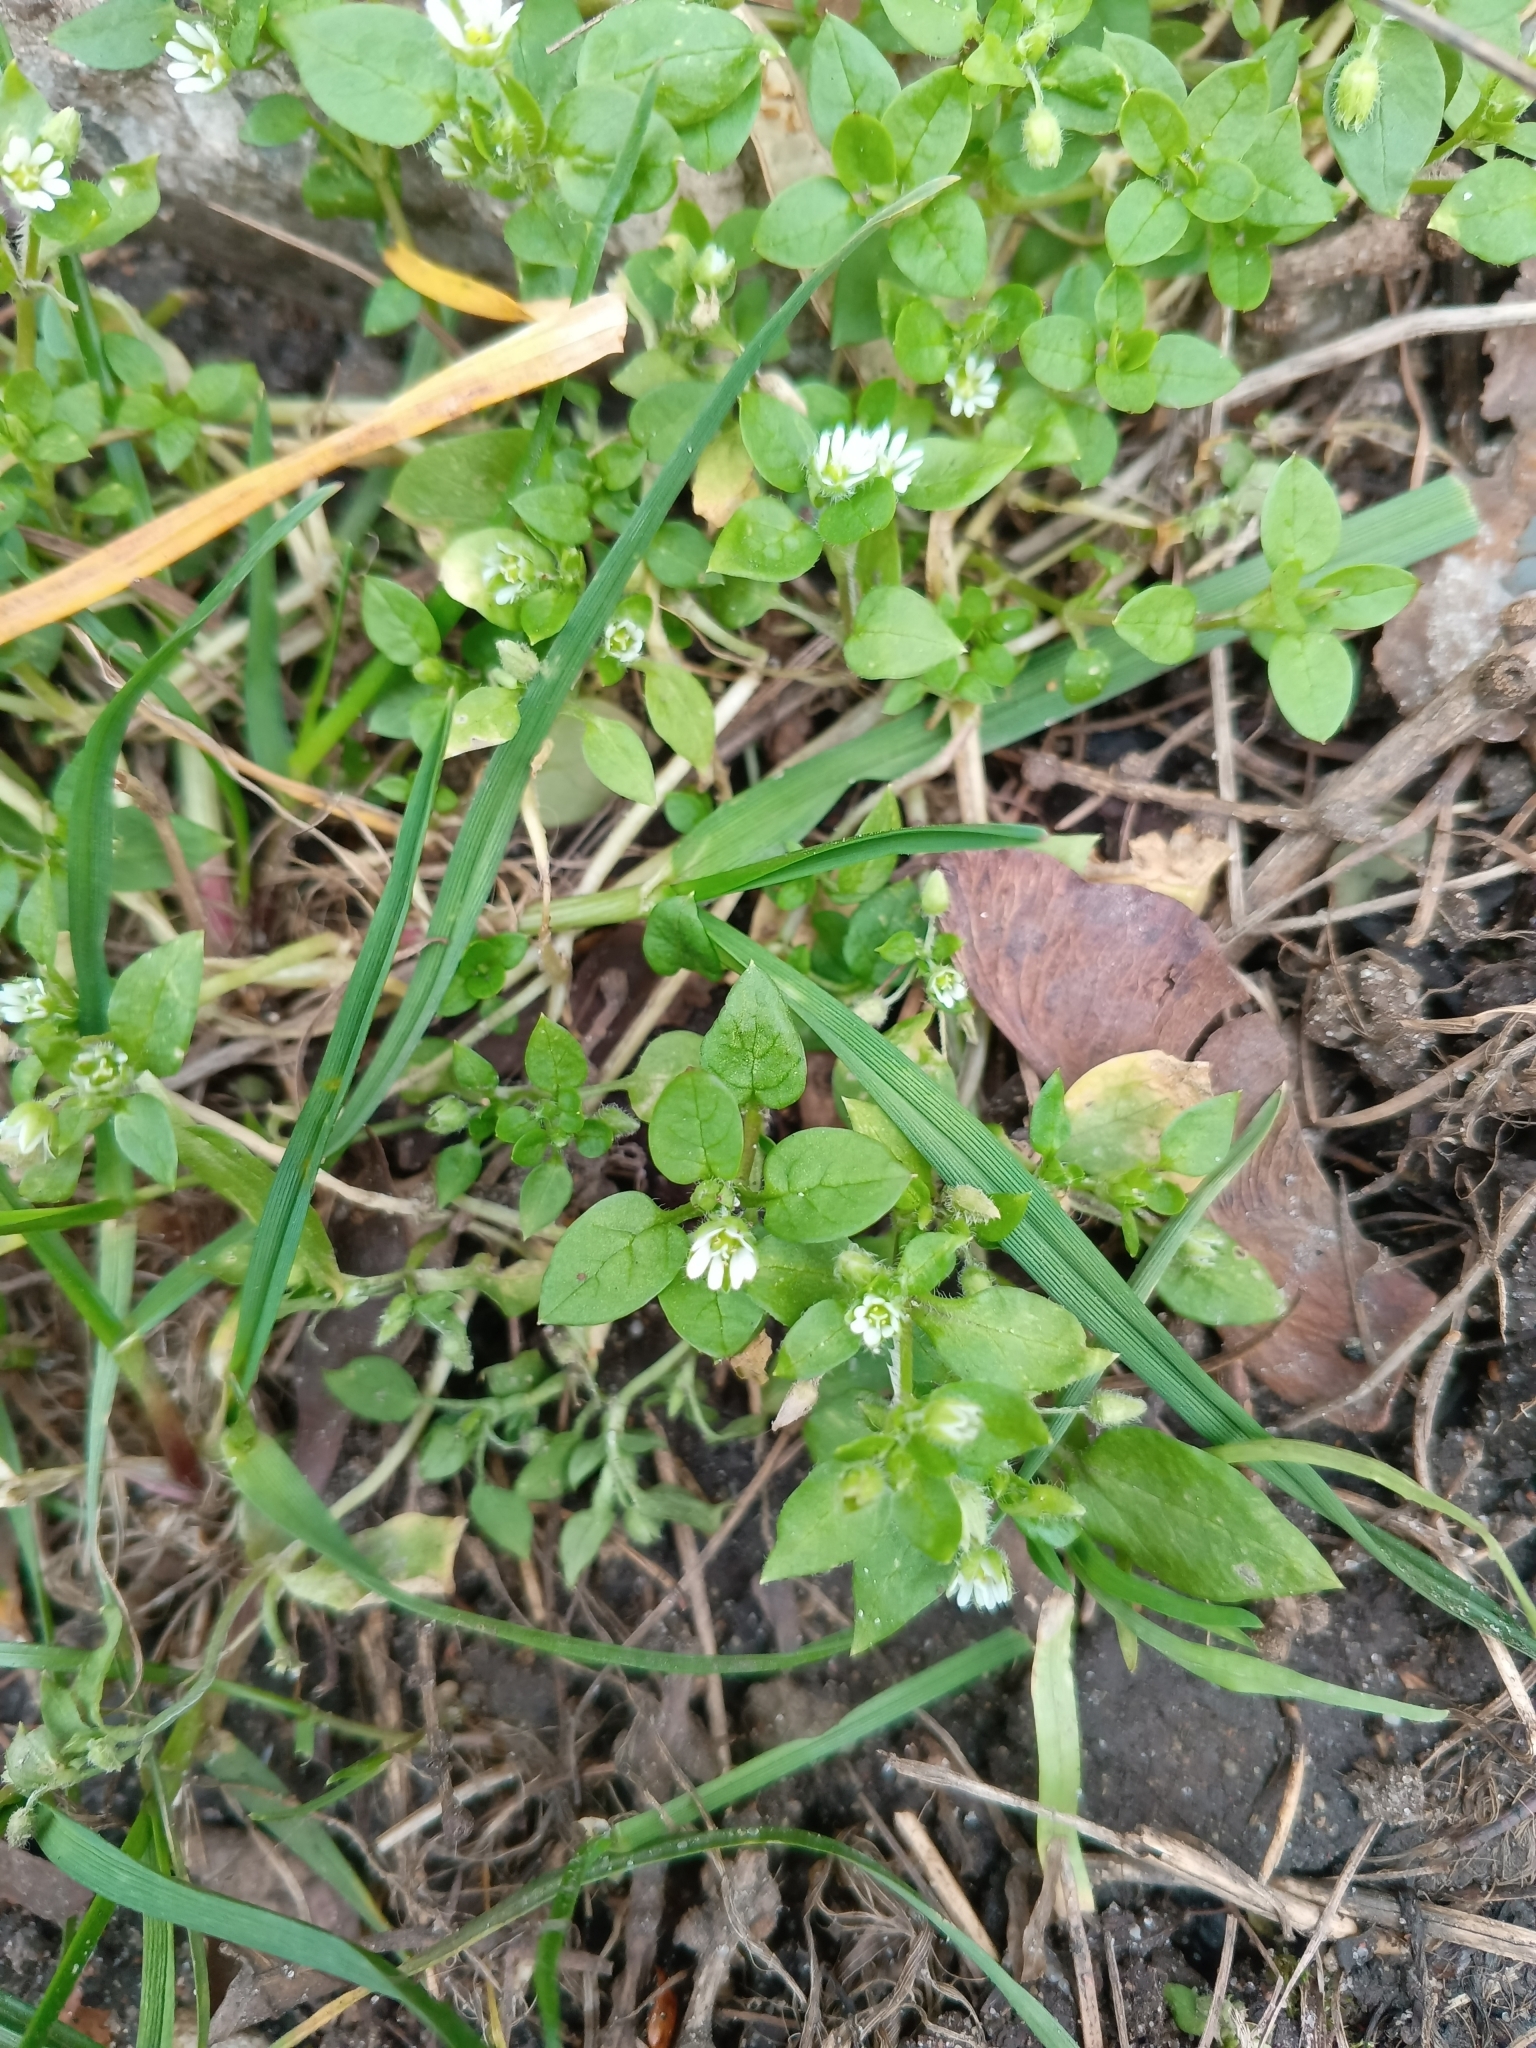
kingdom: Plantae
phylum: Tracheophyta
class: Magnoliopsida
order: Caryophyllales
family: Caryophyllaceae
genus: Stellaria
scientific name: Stellaria media
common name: Common chickweed
